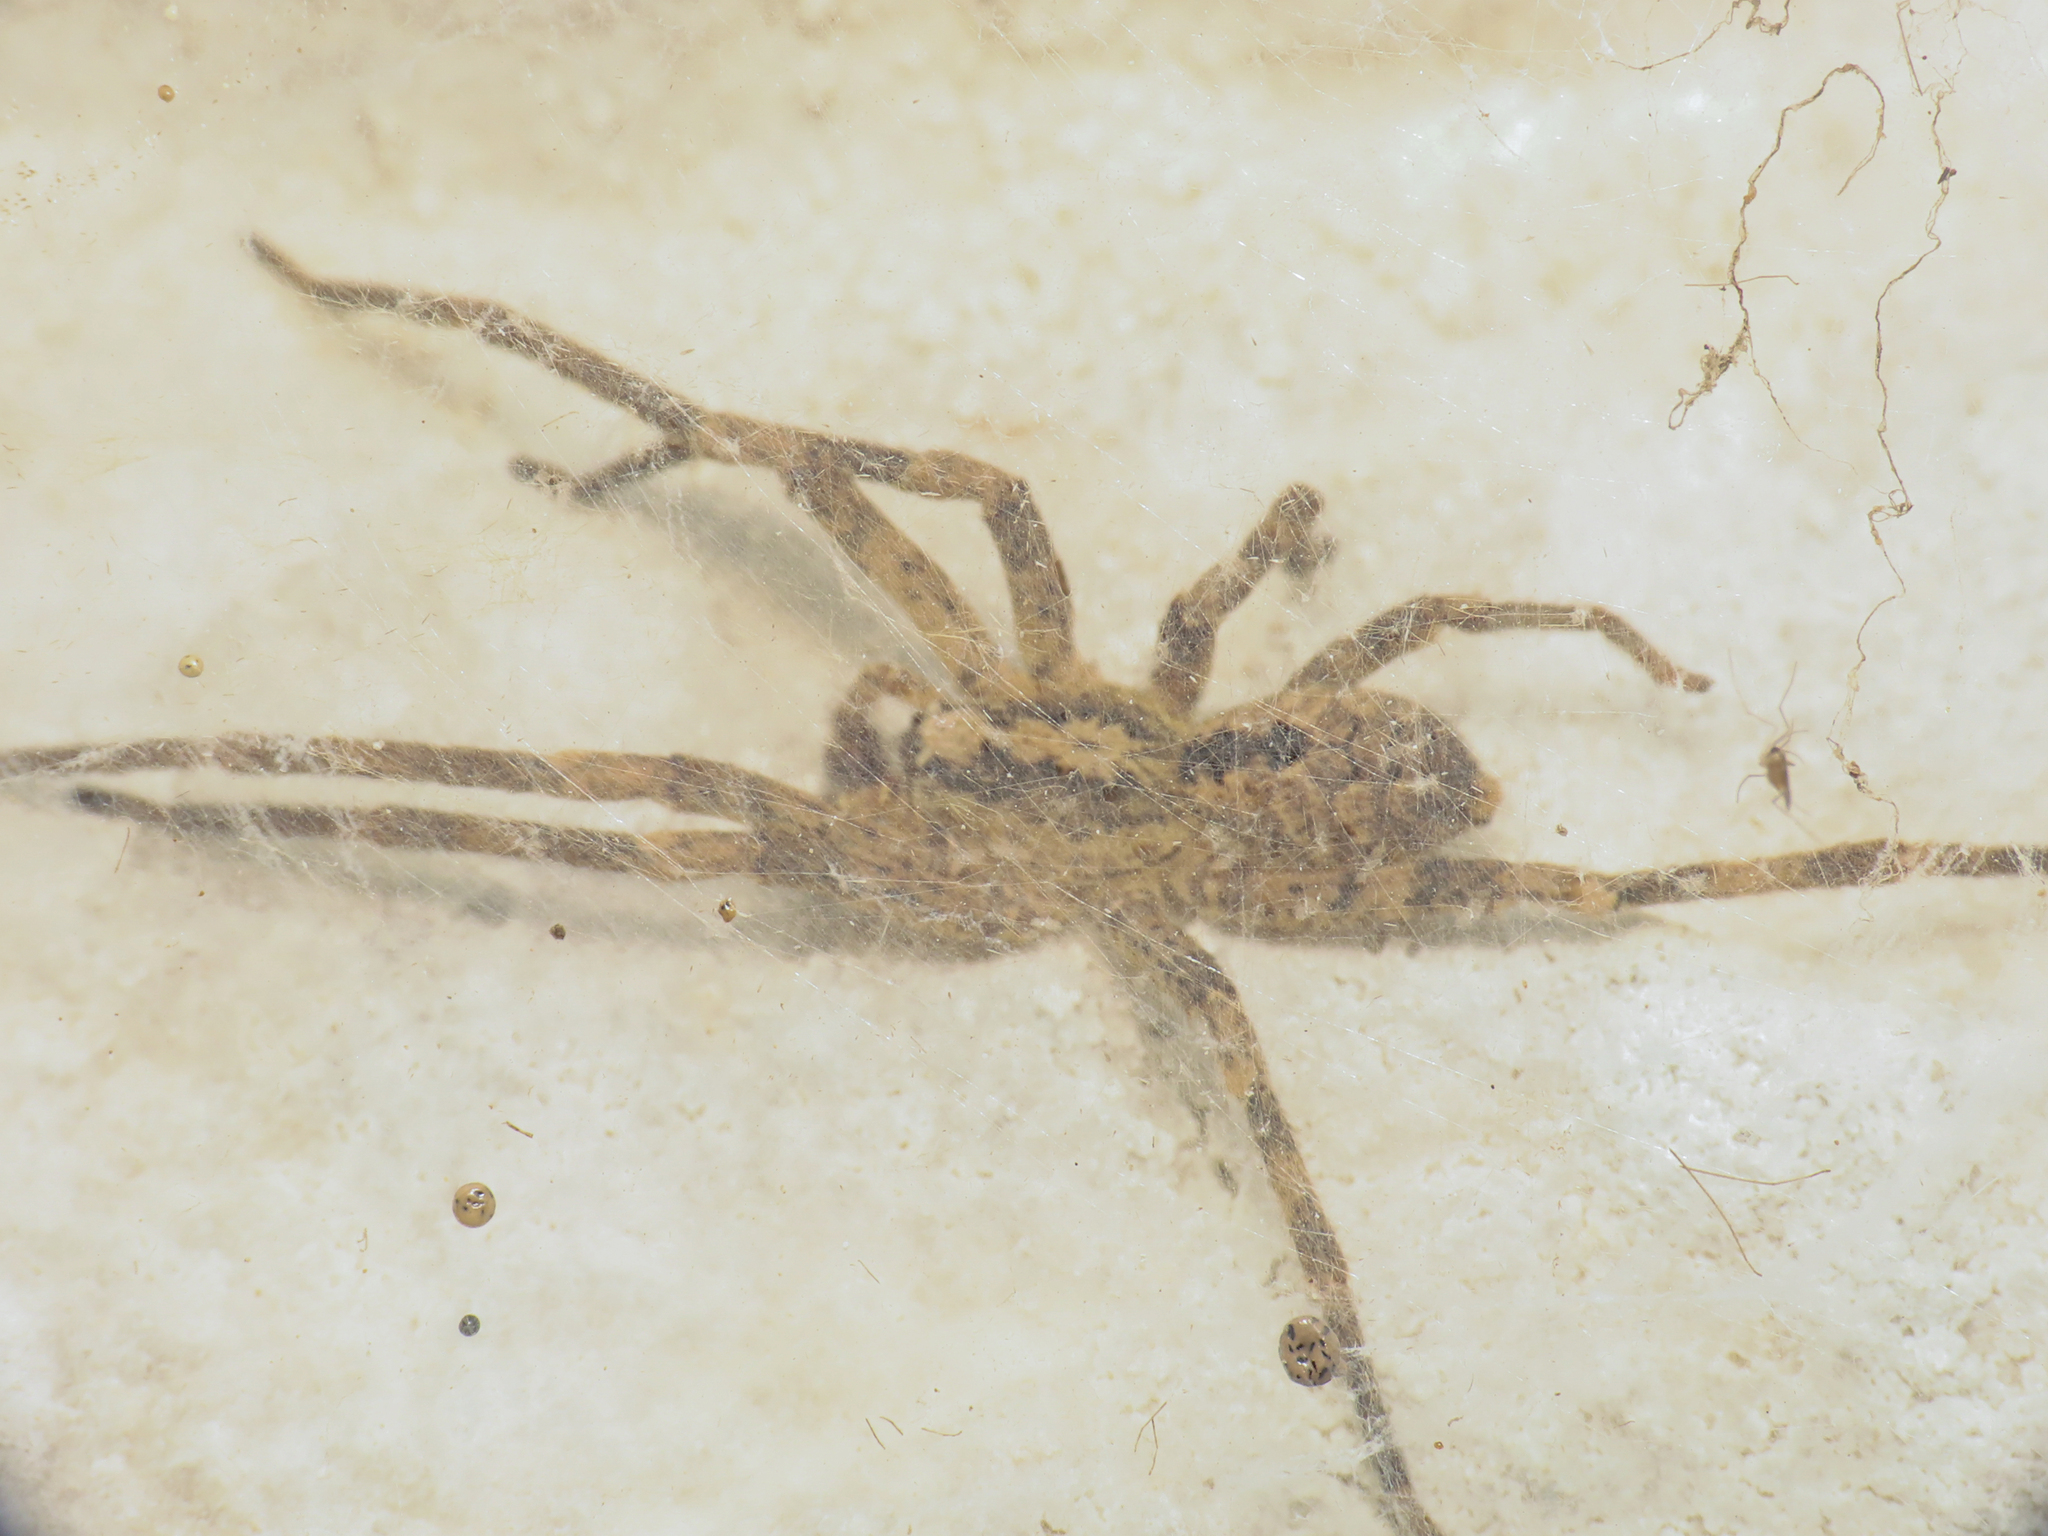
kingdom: Animalia
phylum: Arthropoda
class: Arachnida
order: Araneae
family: Zoropsidae
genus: Zoropsis
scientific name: Zoropsis spinimana
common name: Zoropsid spider
